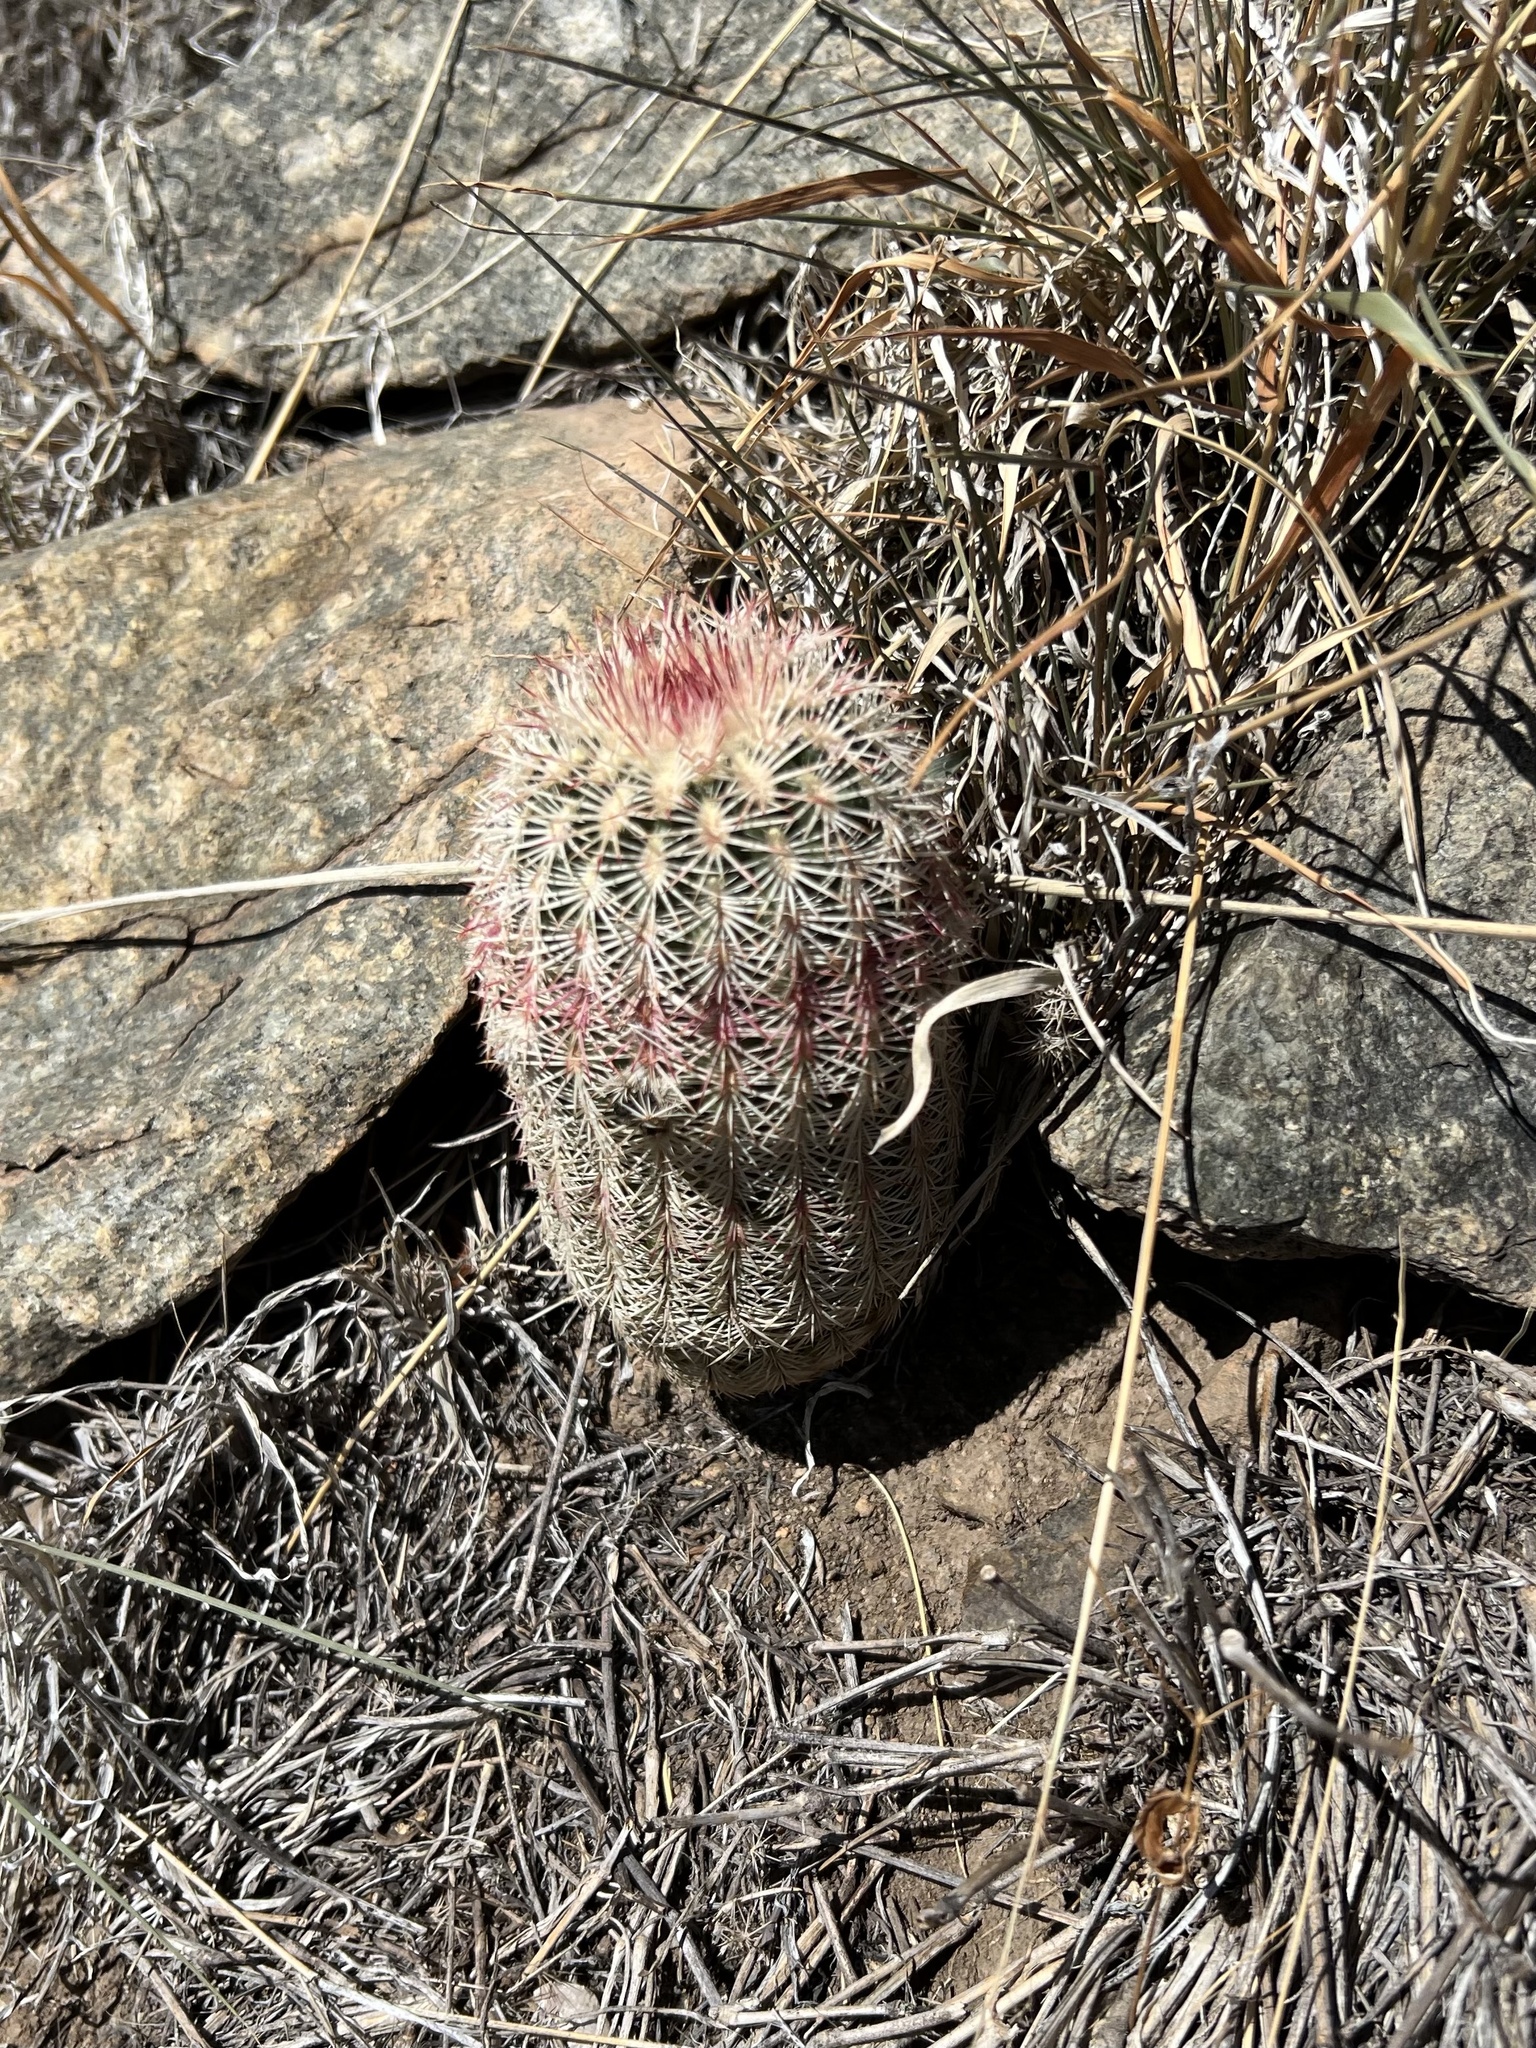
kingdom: Plantae
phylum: Tracheophyta
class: Magnoliopsida
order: Caryophyllales
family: Cactaceae
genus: Echinocereus
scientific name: Echinocereus rigidissimus
